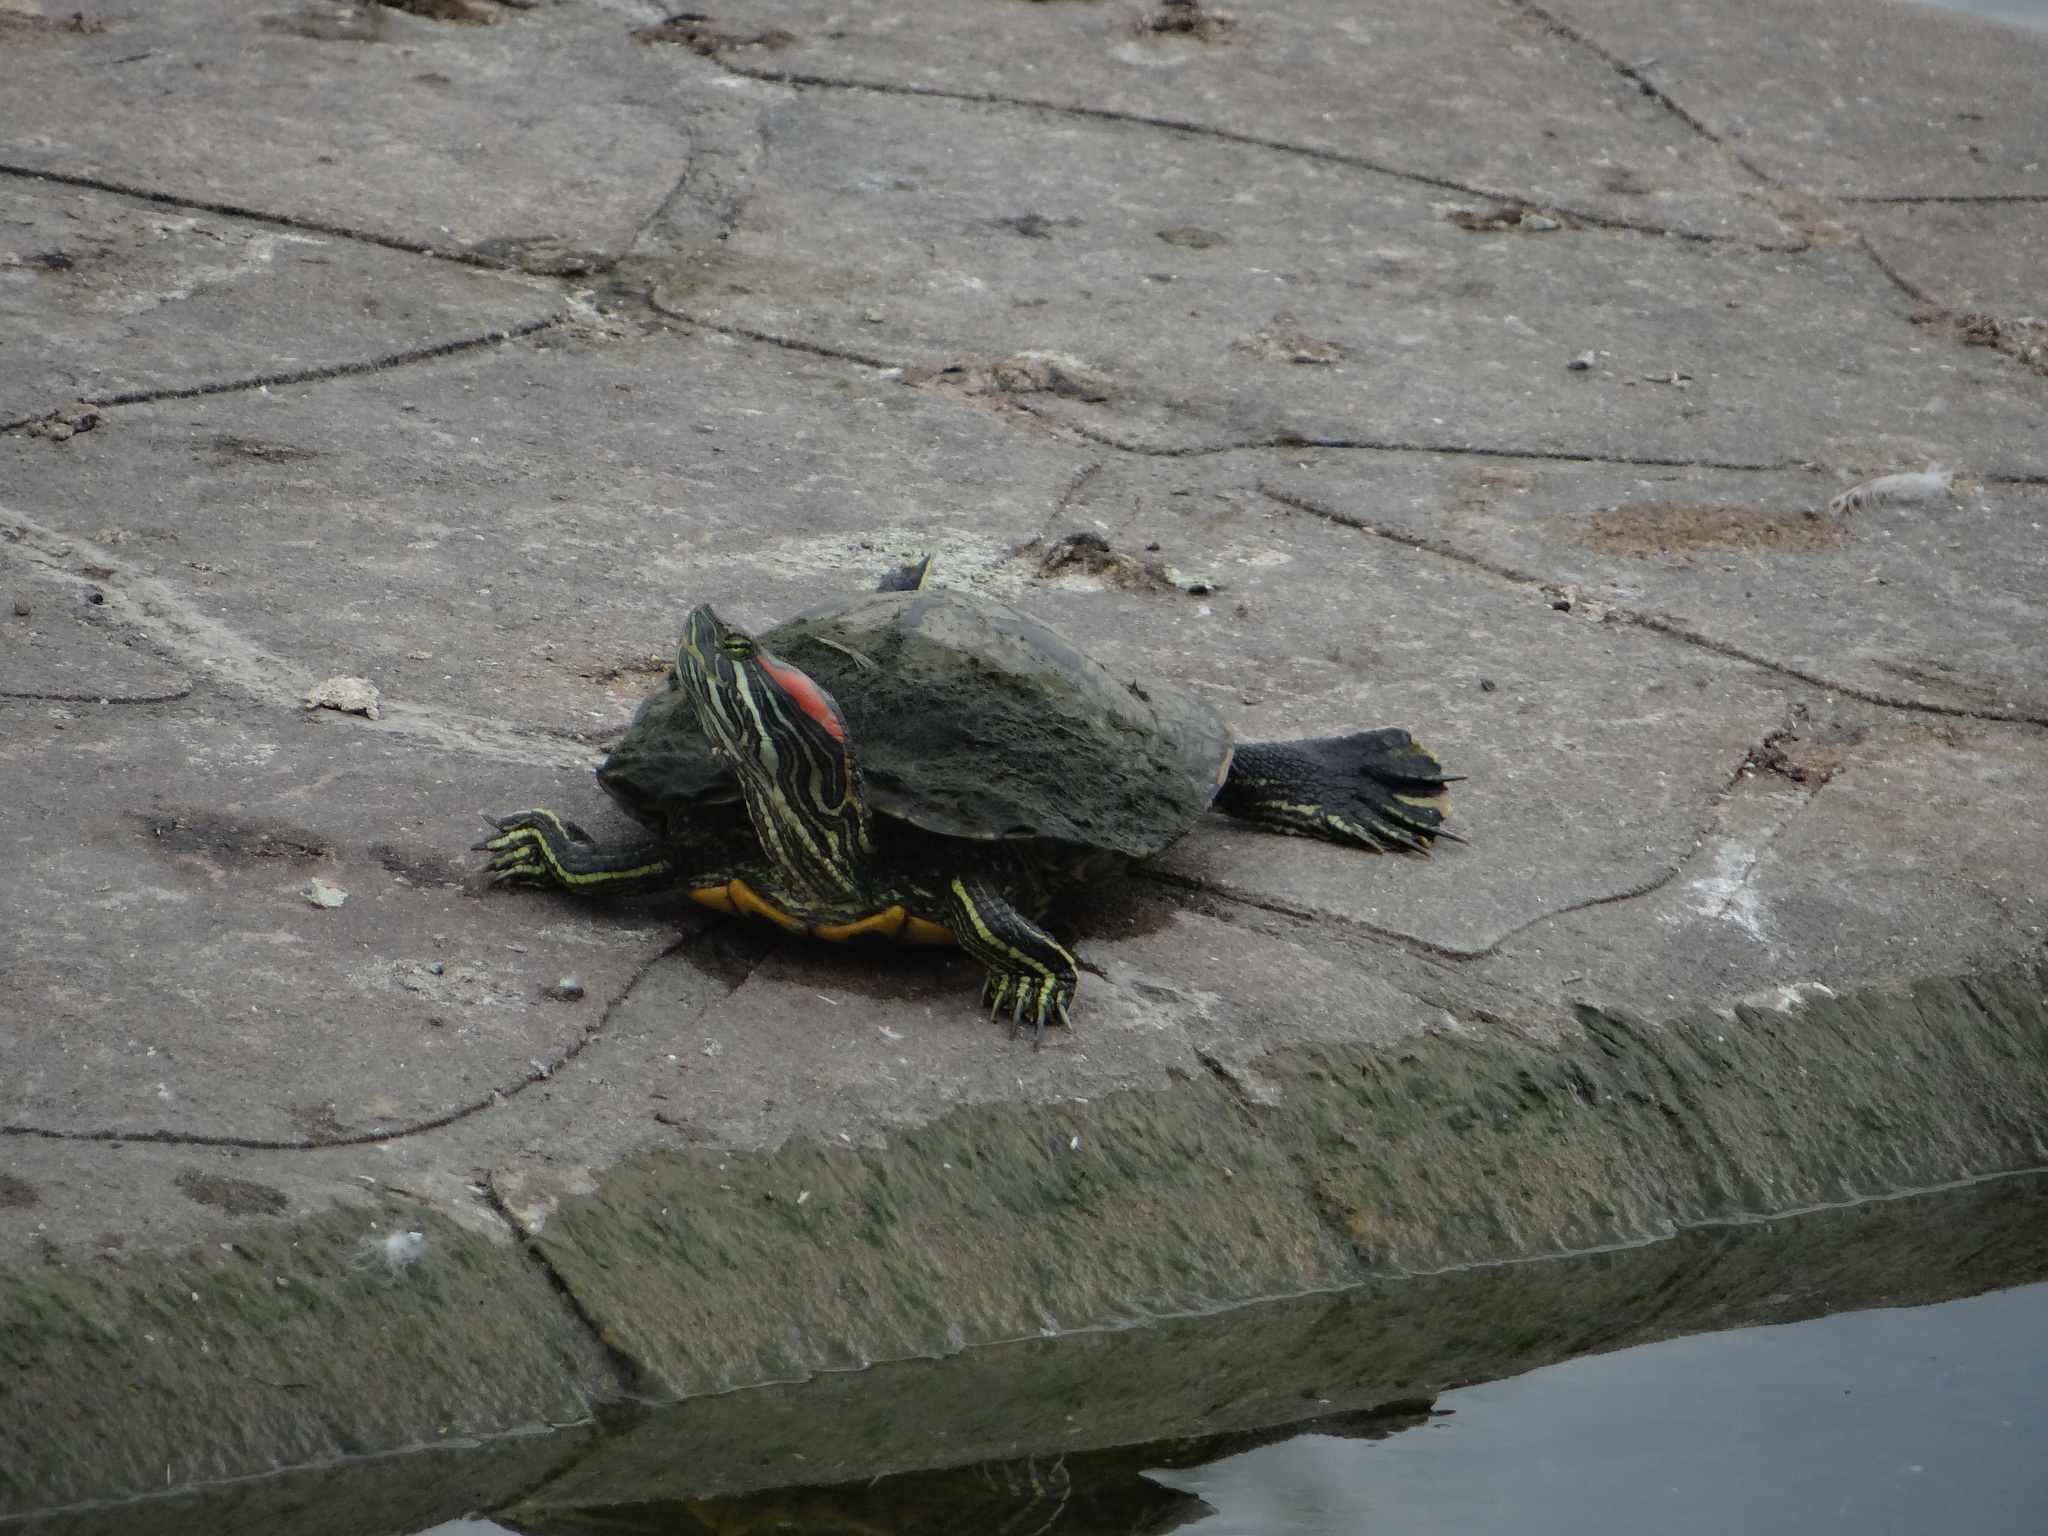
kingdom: Animalia
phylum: Chordata
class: Testudines
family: Emydidae
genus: Trachemys
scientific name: Trachemys scripta
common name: Slider
